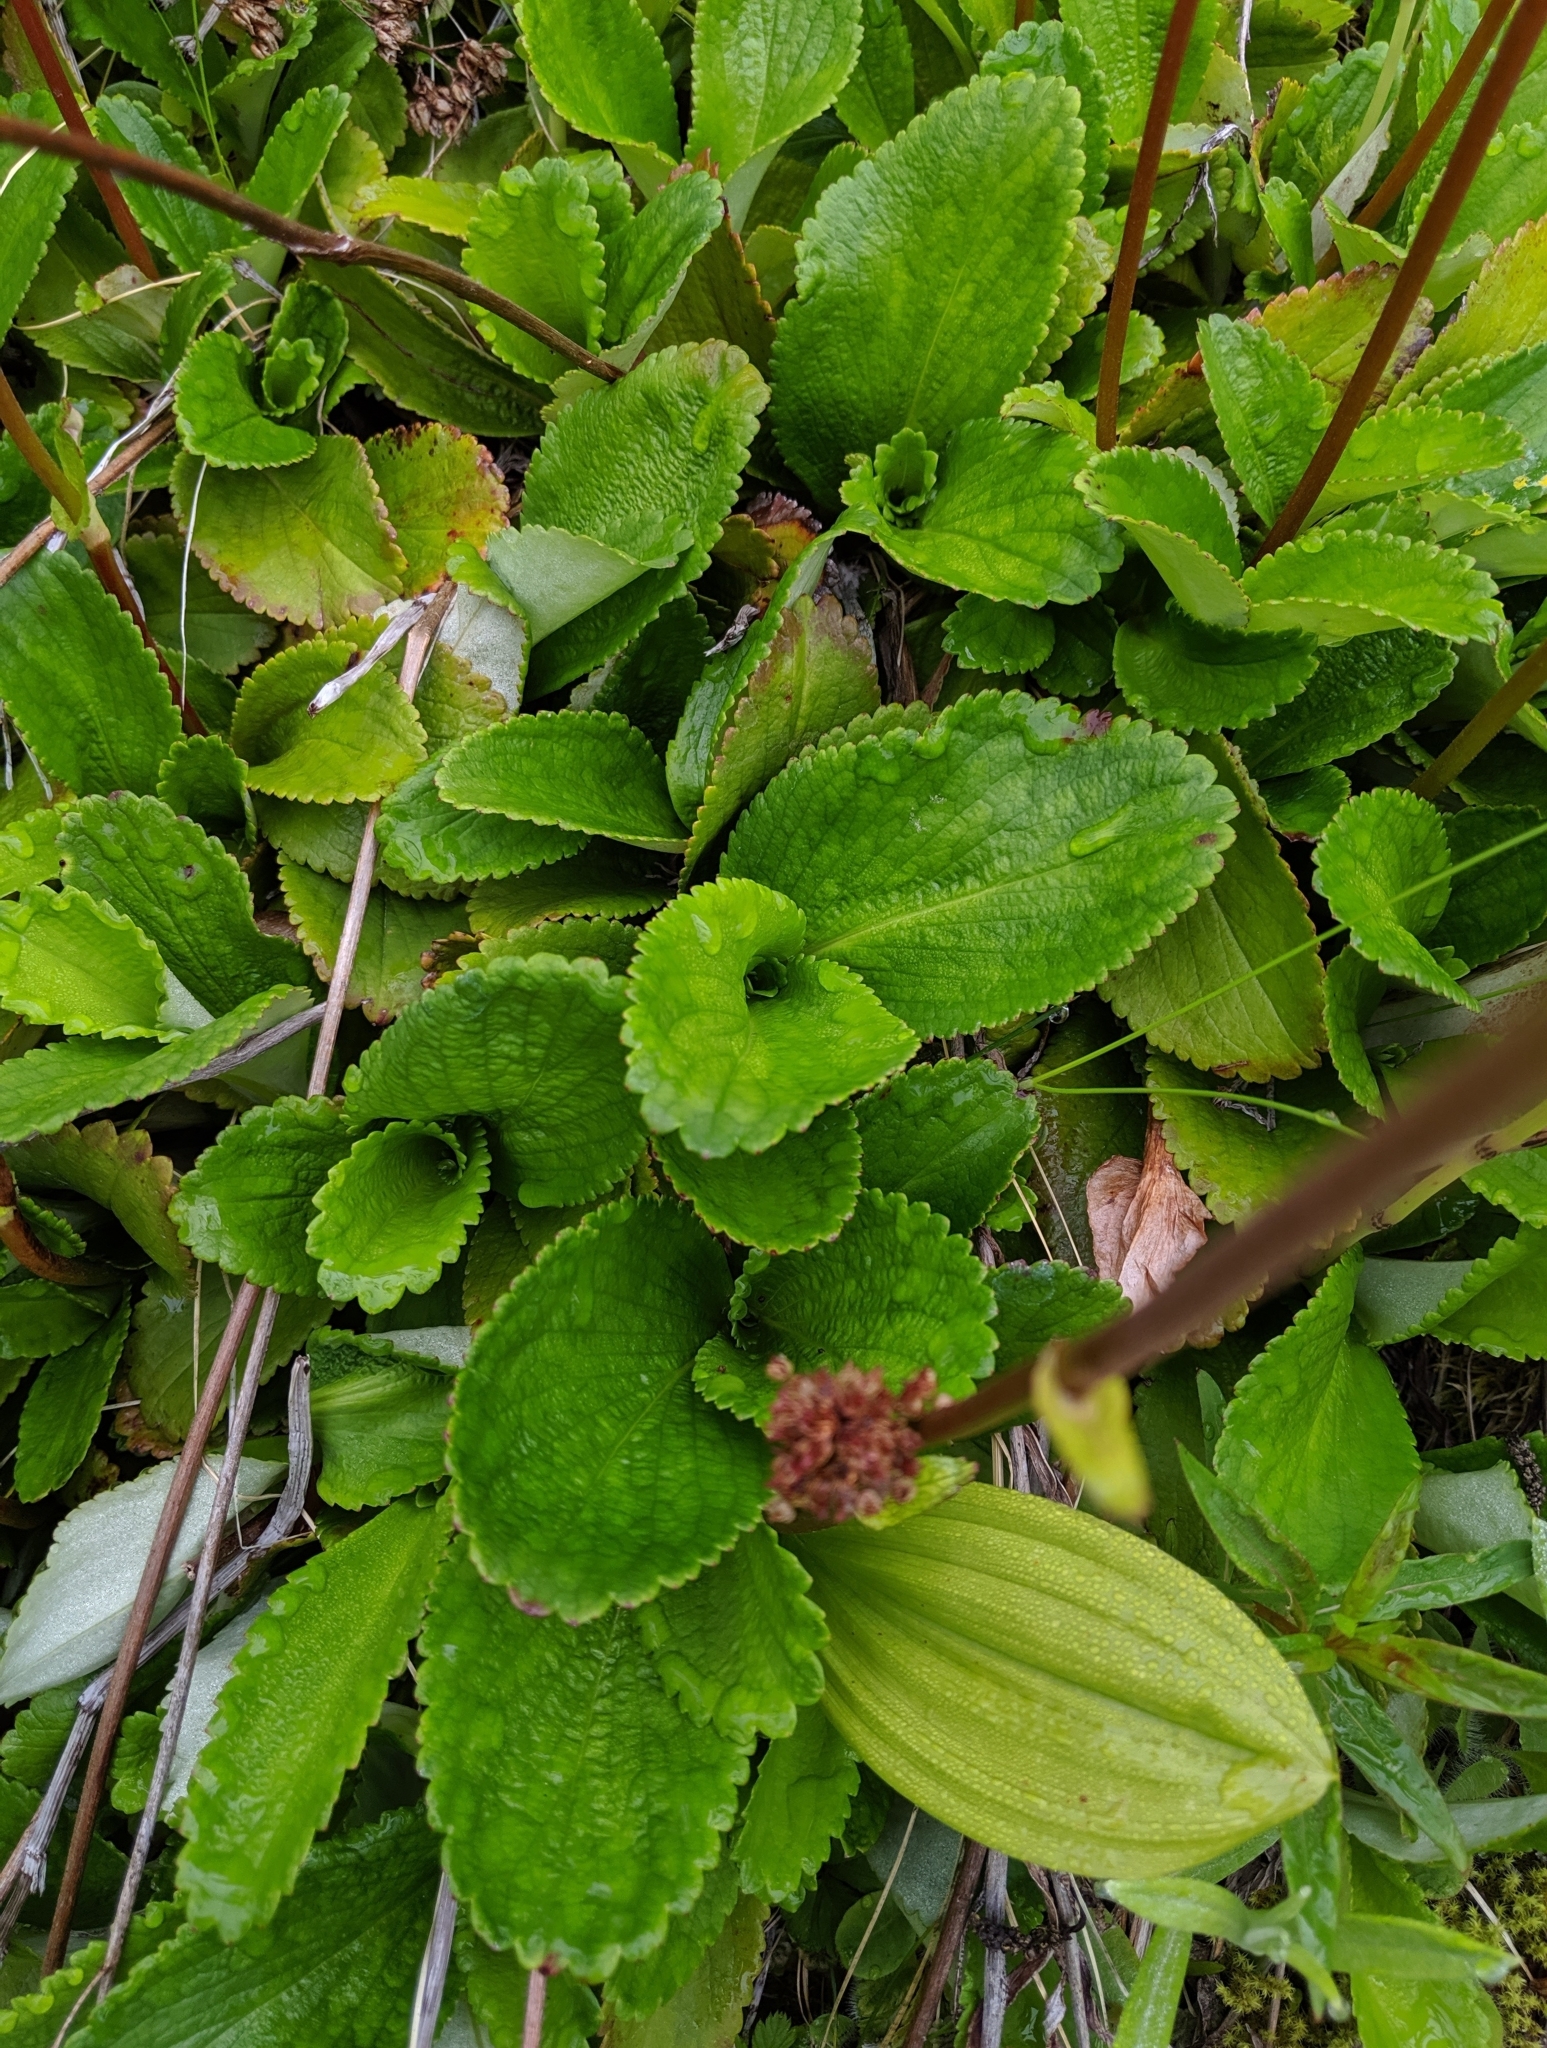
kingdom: Plantae
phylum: Tracheophyta
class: Magnoliopsida
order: Saxifragales
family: Saxifragaceae
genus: Leptarrhena
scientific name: Leptarrhena pyrolifolia
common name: Leatherleaf-saxifrage
